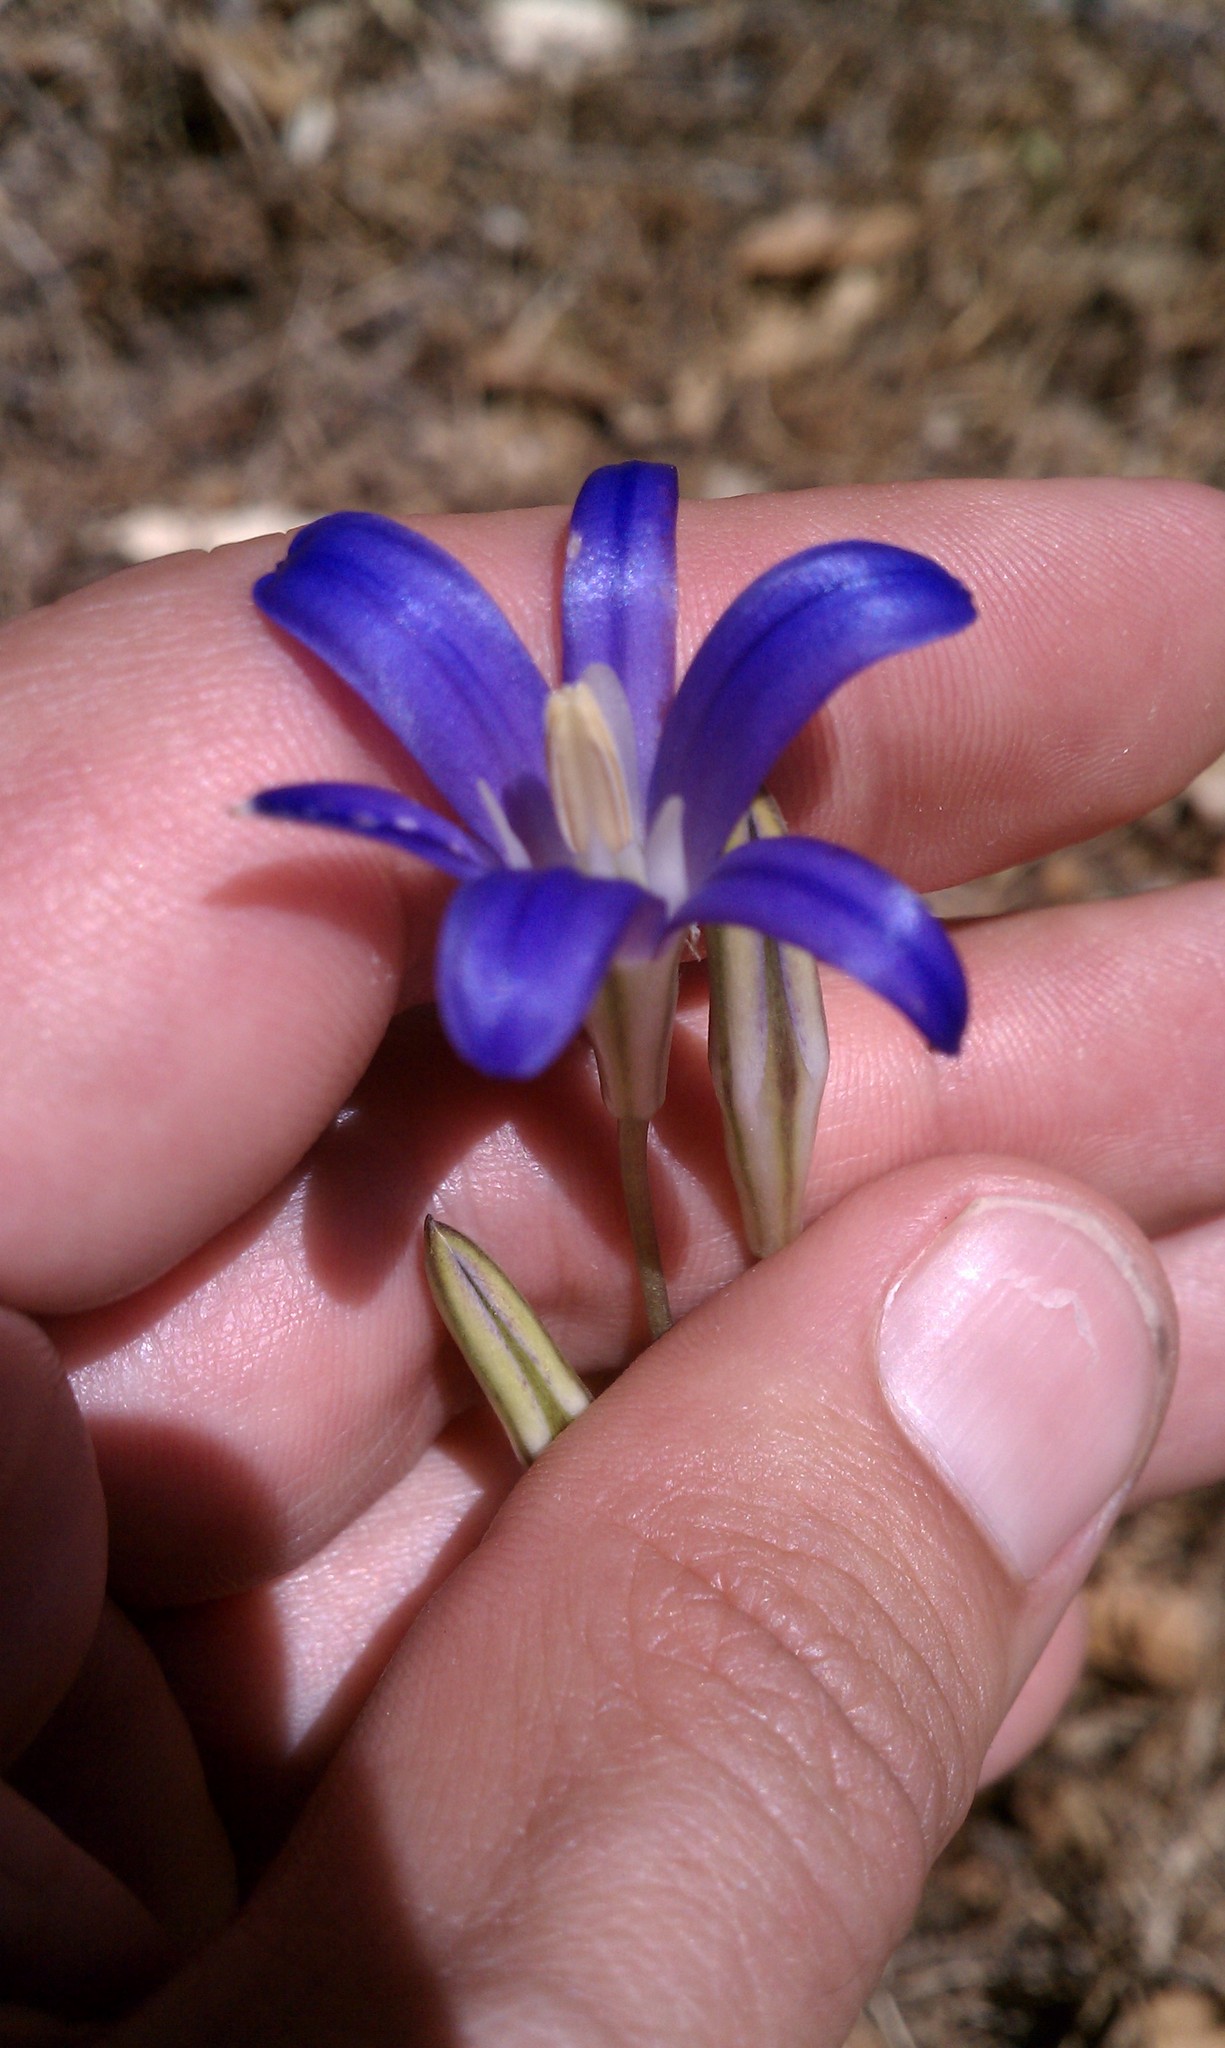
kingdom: Plantae
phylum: Tracheophyta
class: Liliopsida
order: Asparagales
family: Asparagaceae
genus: Brodiaea
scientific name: Brodiaea elegans
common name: Elegant cluster-lily
